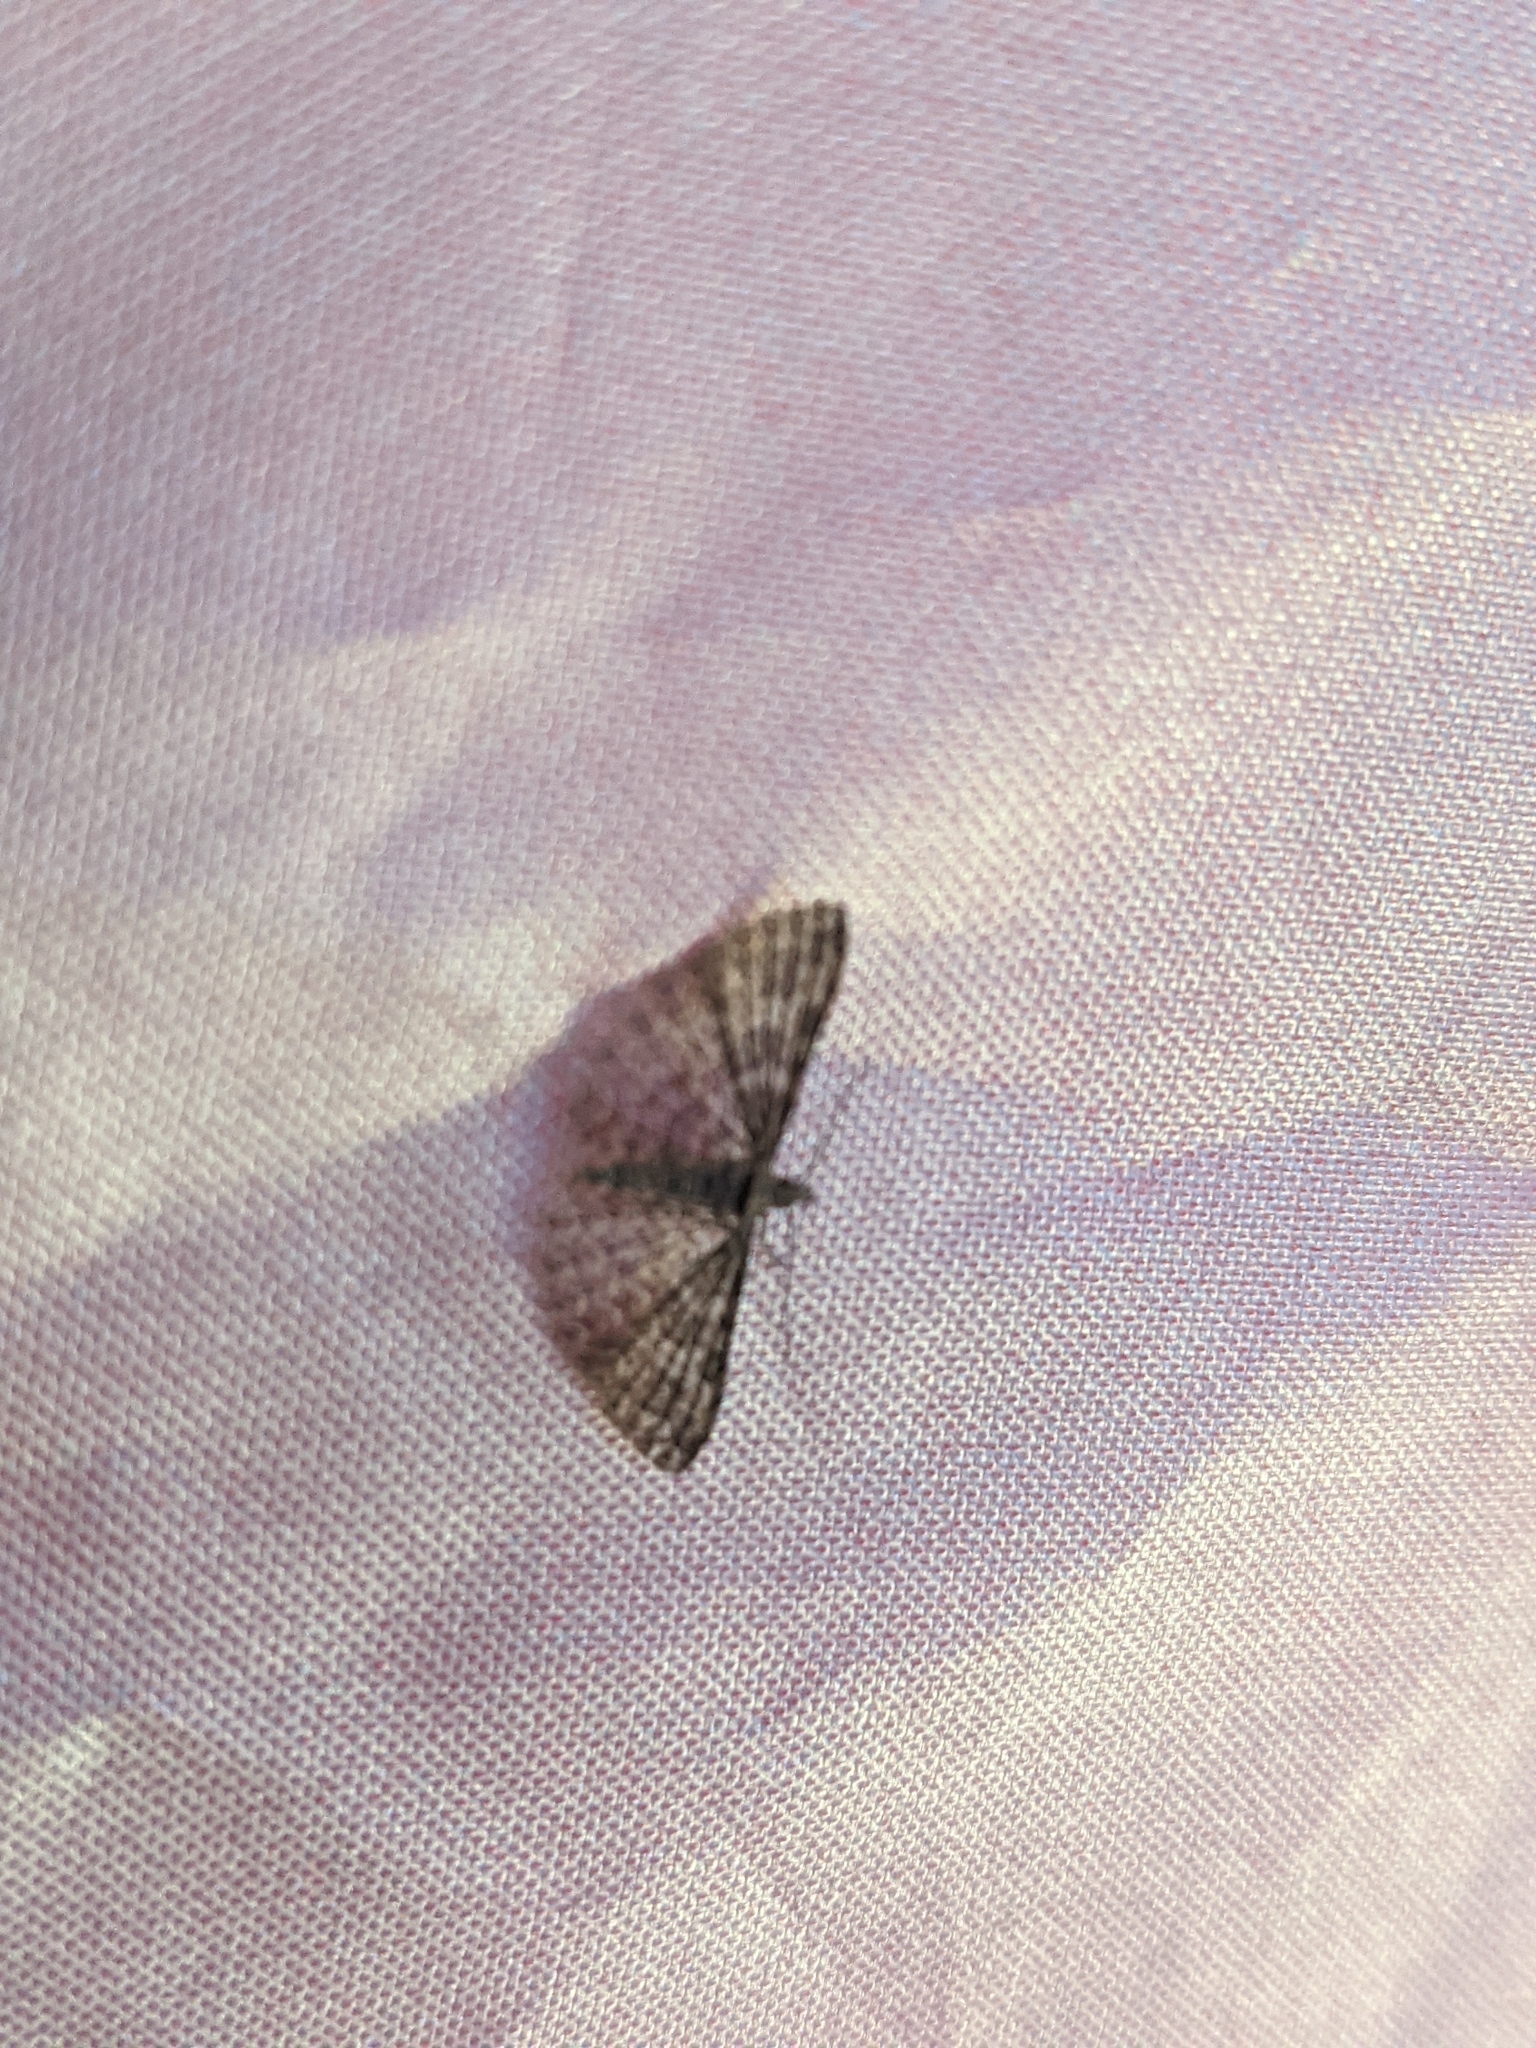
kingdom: Animalia
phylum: Arthropoda
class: Insecta
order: Lepidoptera
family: Alucitidae
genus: Alucita
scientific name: Alucita montana
